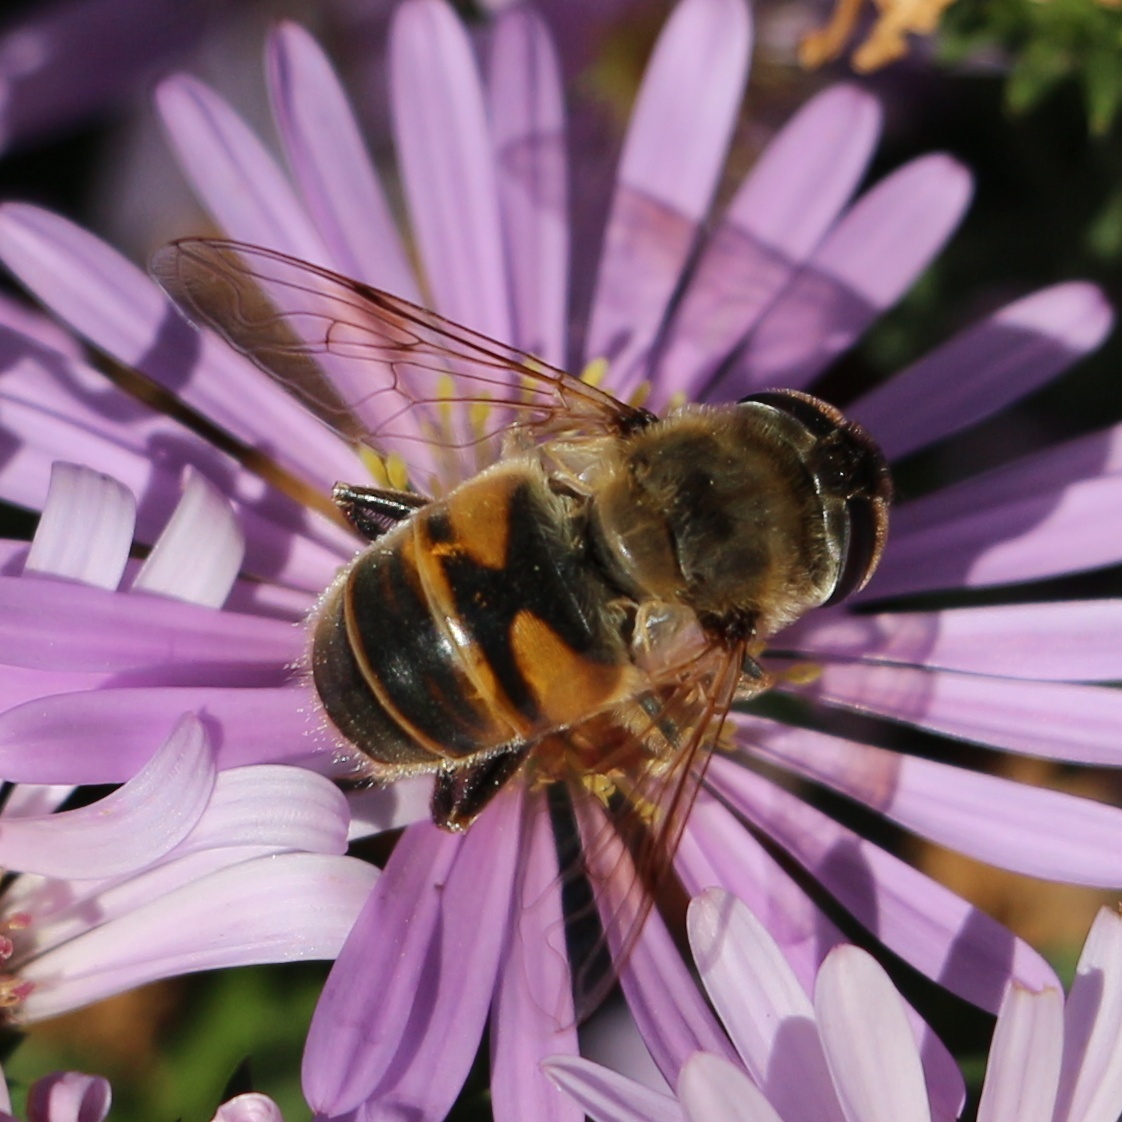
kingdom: Animalia
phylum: Arthropoda
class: Insecta
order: Diptera
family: Syrphidae
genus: Eristalis
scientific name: Eristalis tenax
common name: Drone fly
